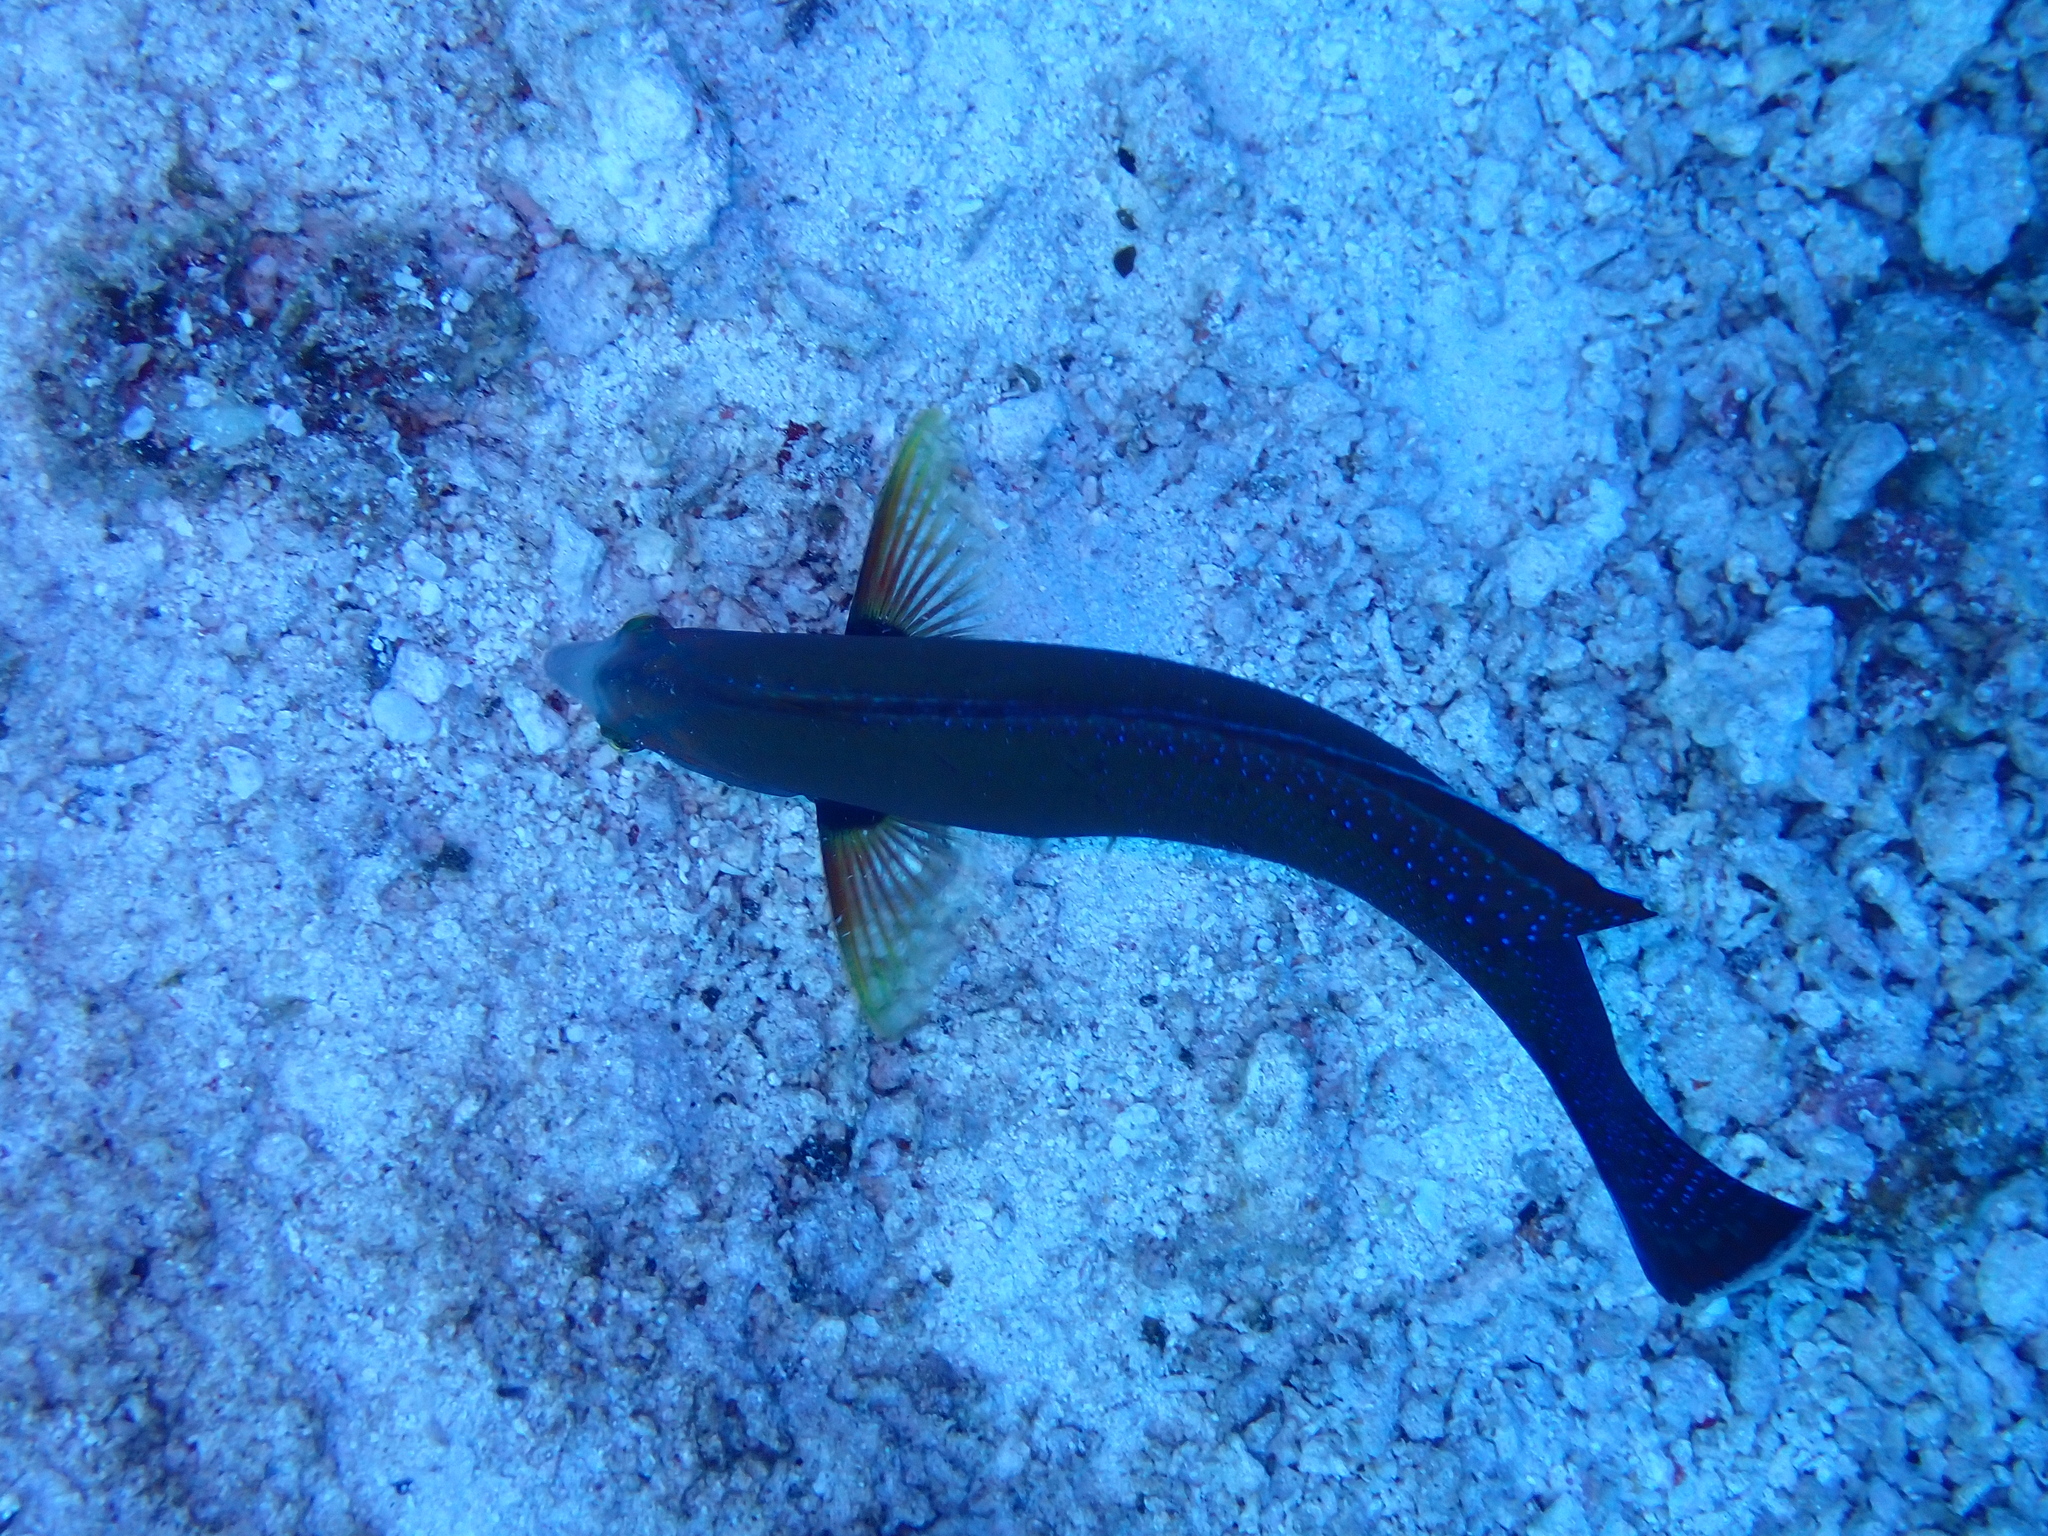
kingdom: Animalia
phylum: Chordata
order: Perciformes
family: Labridae
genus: Coris
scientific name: Coris cuvieri
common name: African coris
